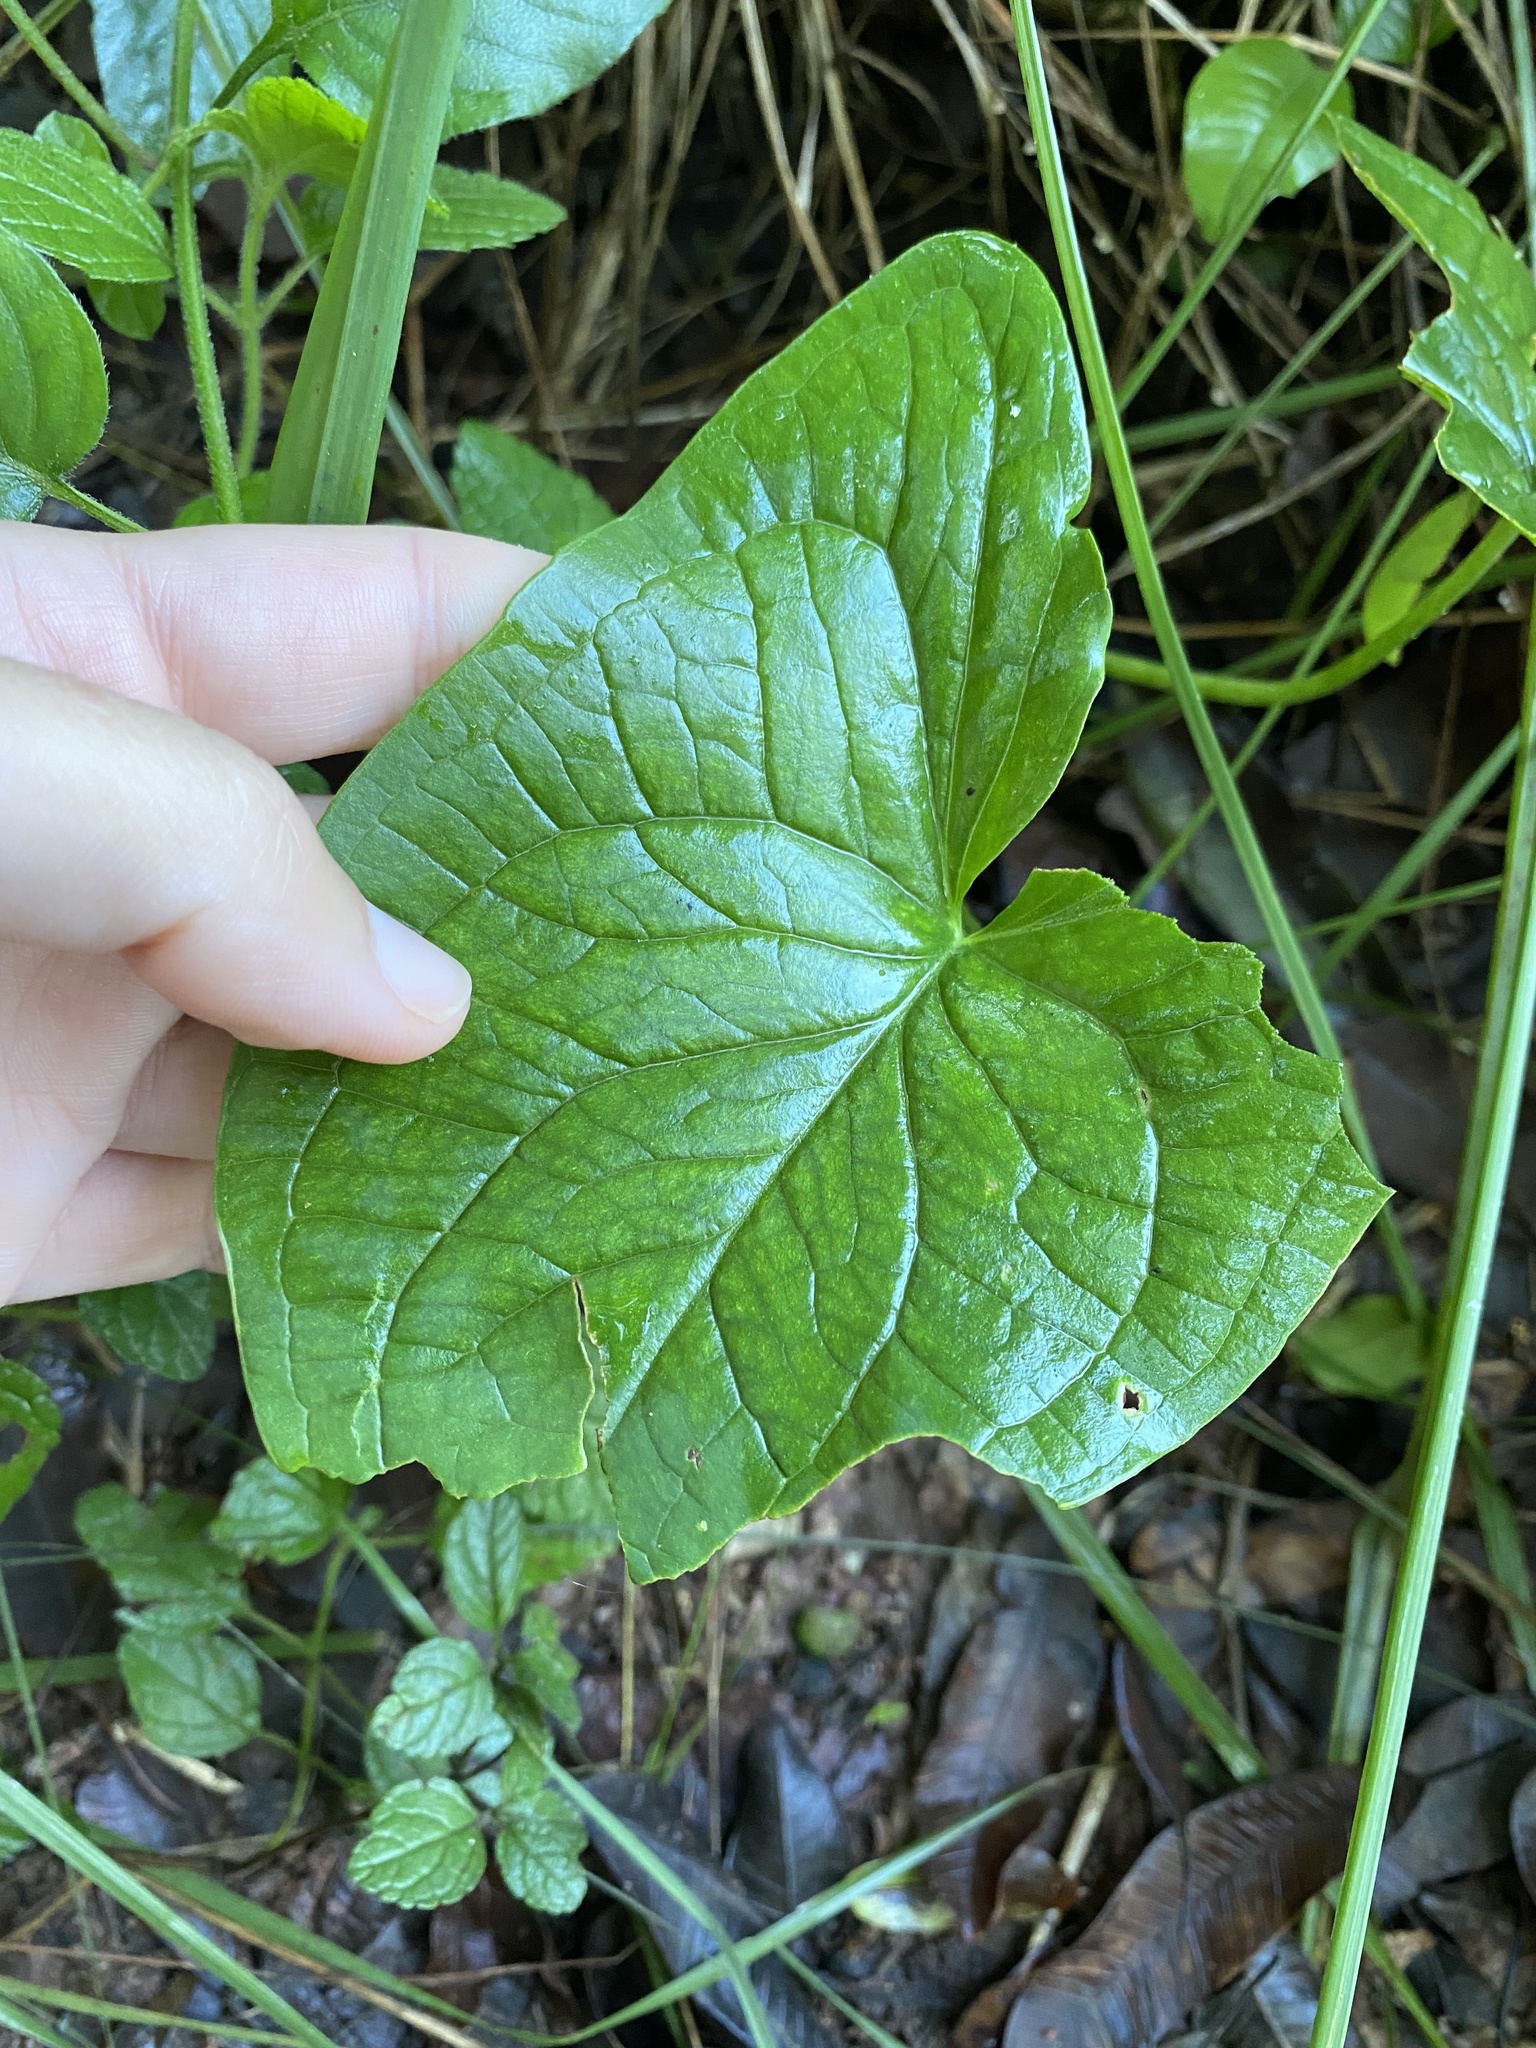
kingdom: Plantae
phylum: Tracheophyta
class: Liliopsida
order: Alismatales
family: Araceae
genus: Stylochaeton
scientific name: Stylochaeton natalensis
